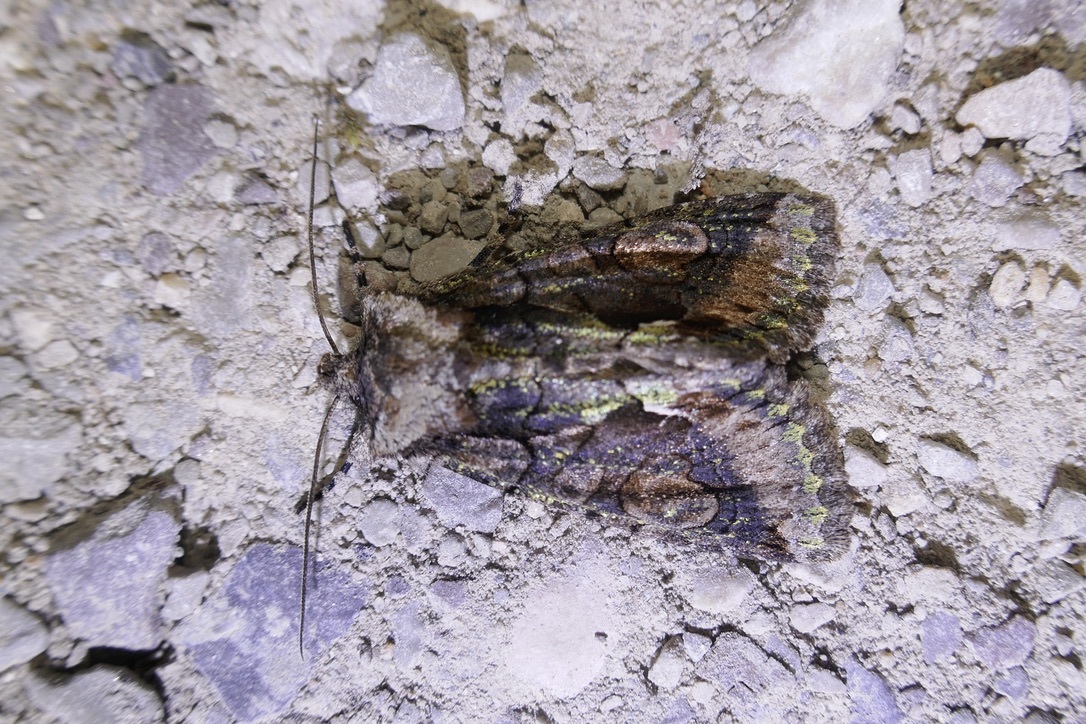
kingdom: Animalia
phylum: Arthropoda
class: Insecta
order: Lepidoptera
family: Noctuidae
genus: Allophyes
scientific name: Allophyes oxyacanthae
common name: Green-brindled crescent
